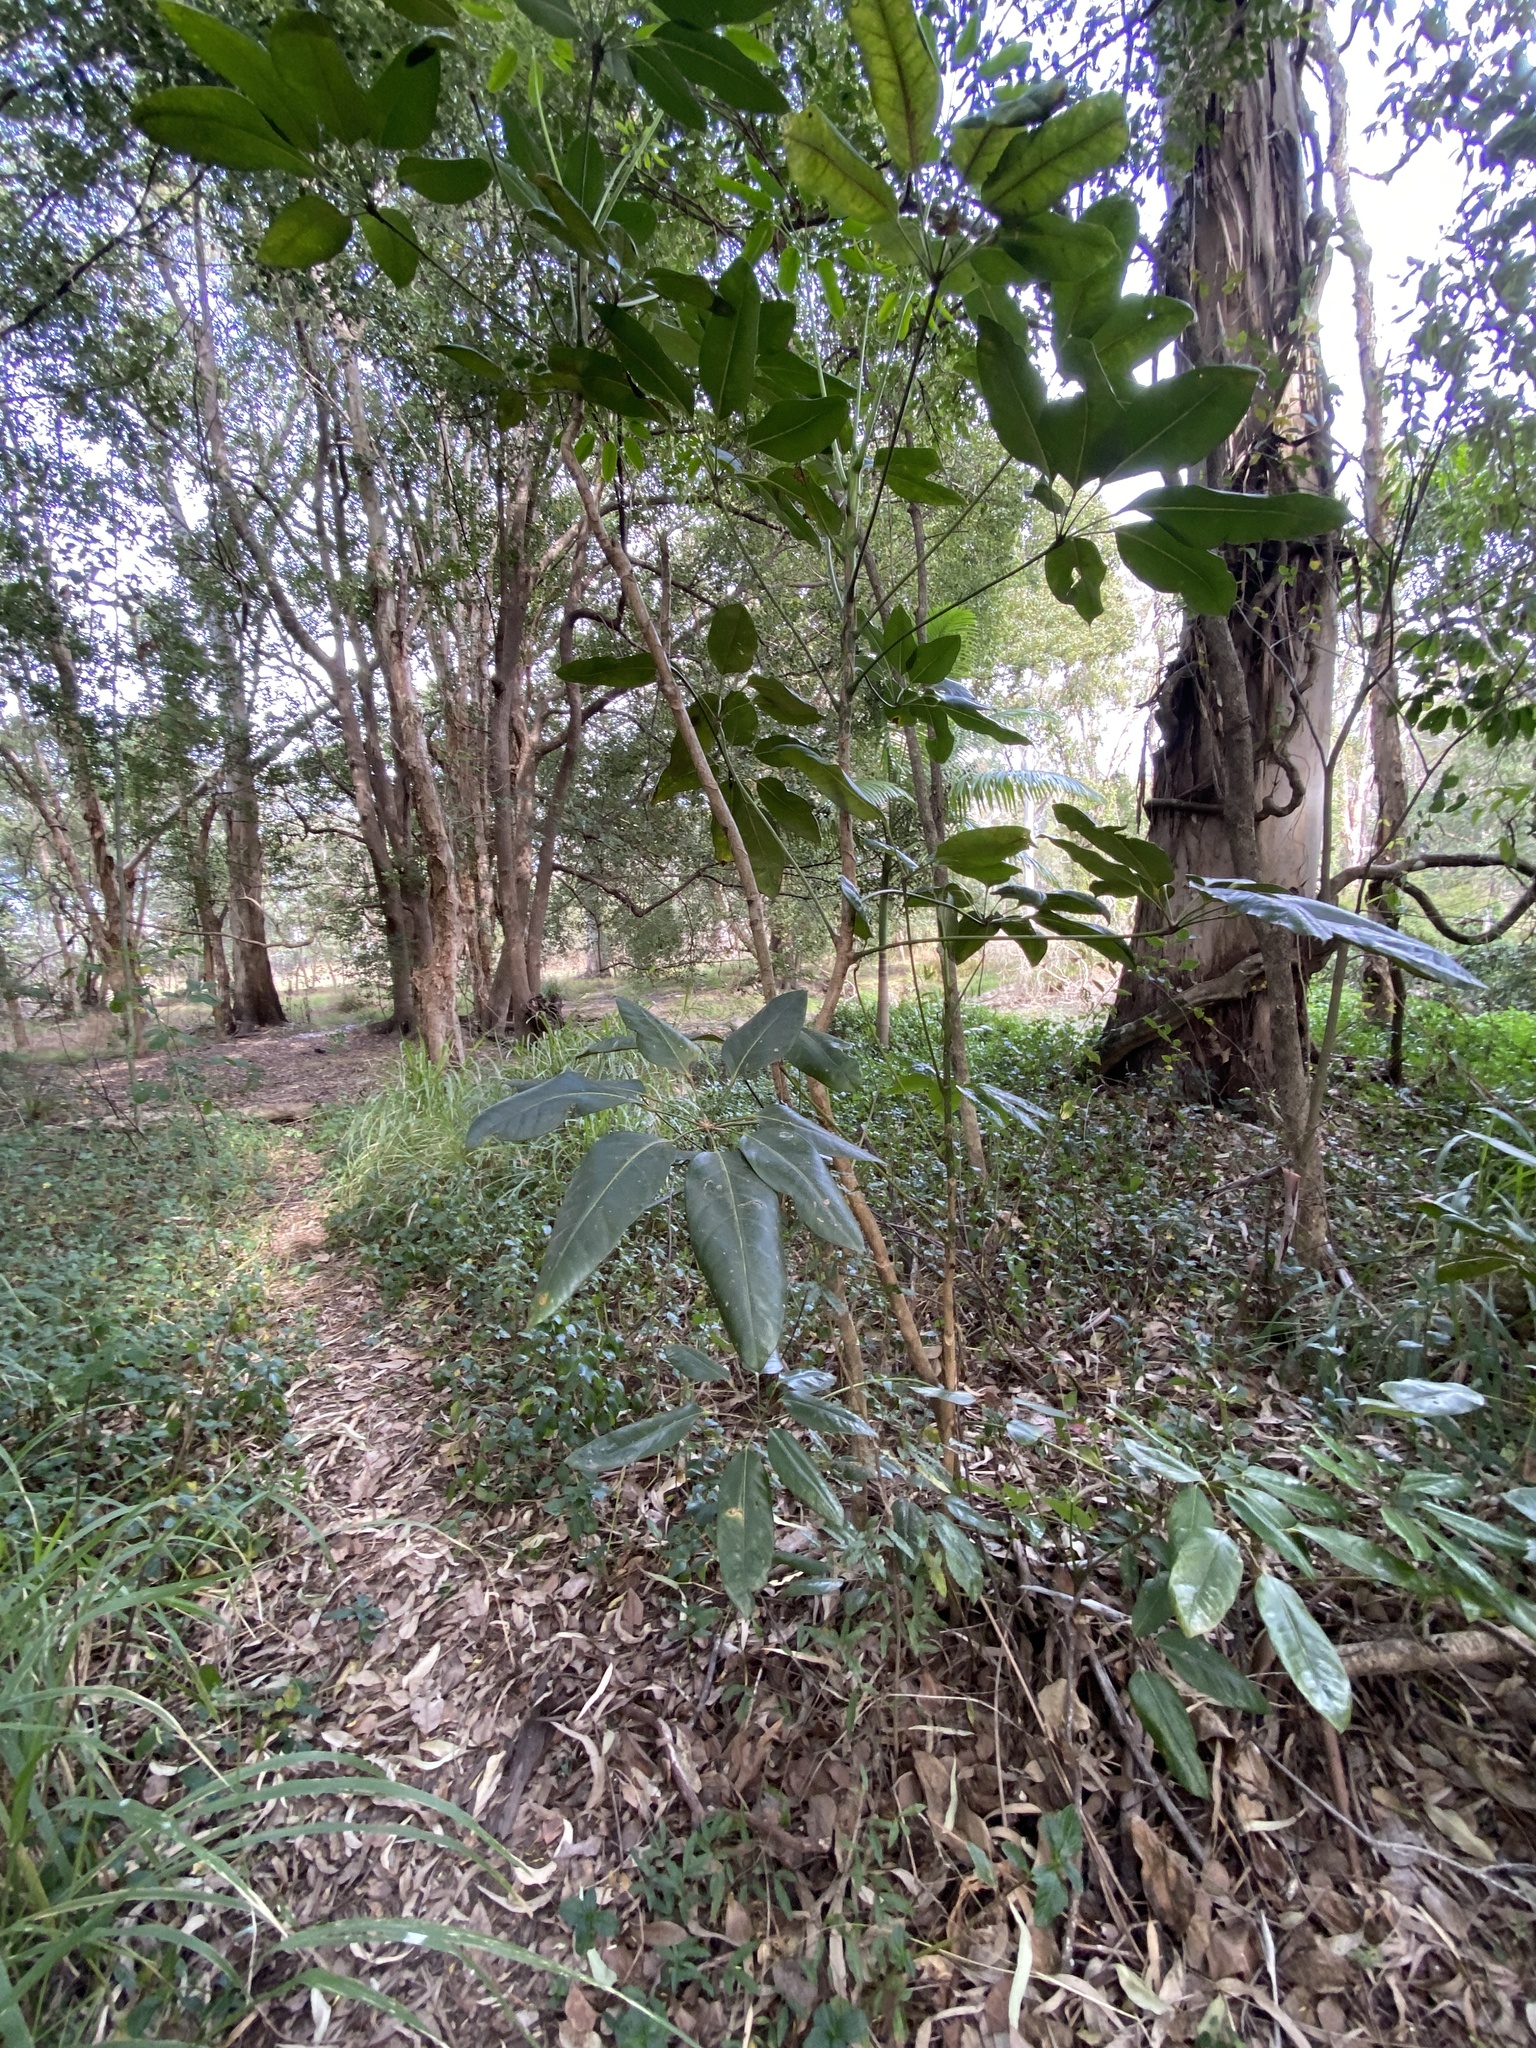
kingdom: Plantae
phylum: Tracheophyta
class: Magnoliopsida
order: Apiales
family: Araliaceae
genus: Heptapleurum
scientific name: Heptapleurum actinophyllum
